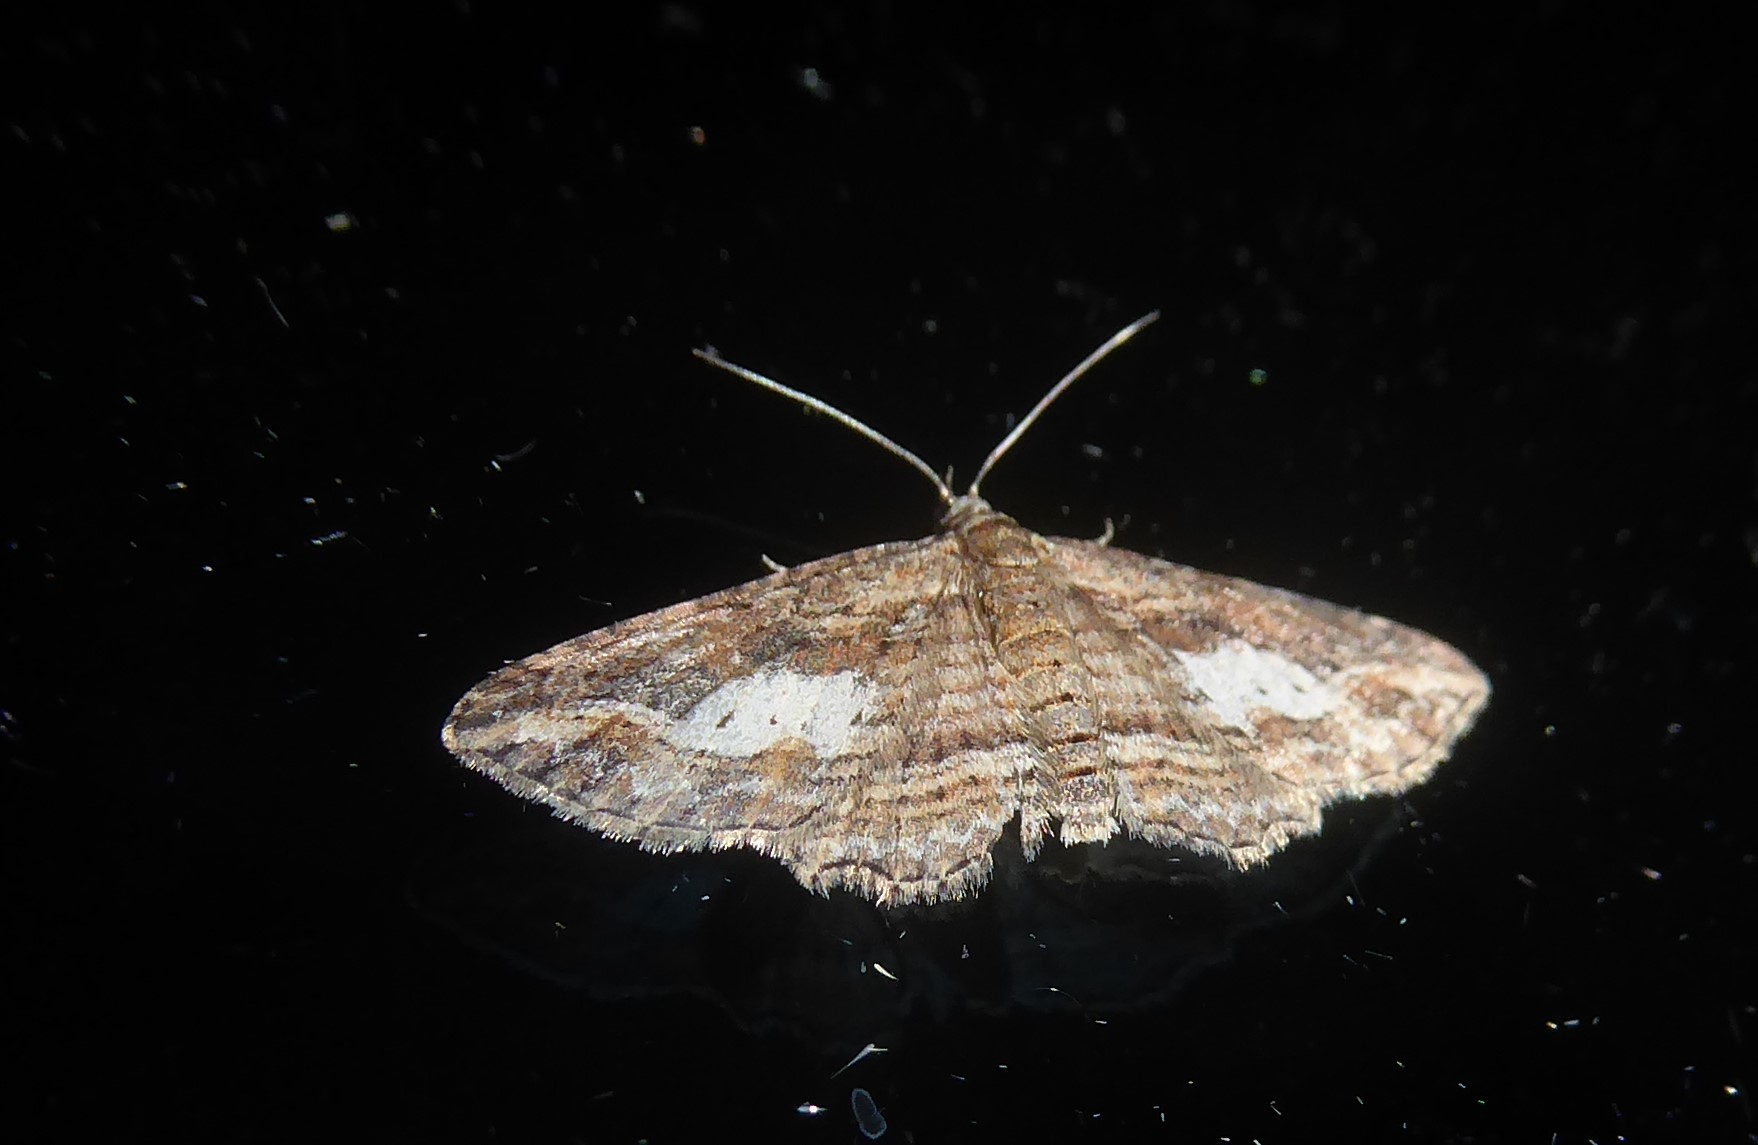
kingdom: Animalia
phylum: Arthropoda
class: Insecta
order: Lepidoptera
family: Geometridae
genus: Chloroclystis
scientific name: Chloroclystis filata
